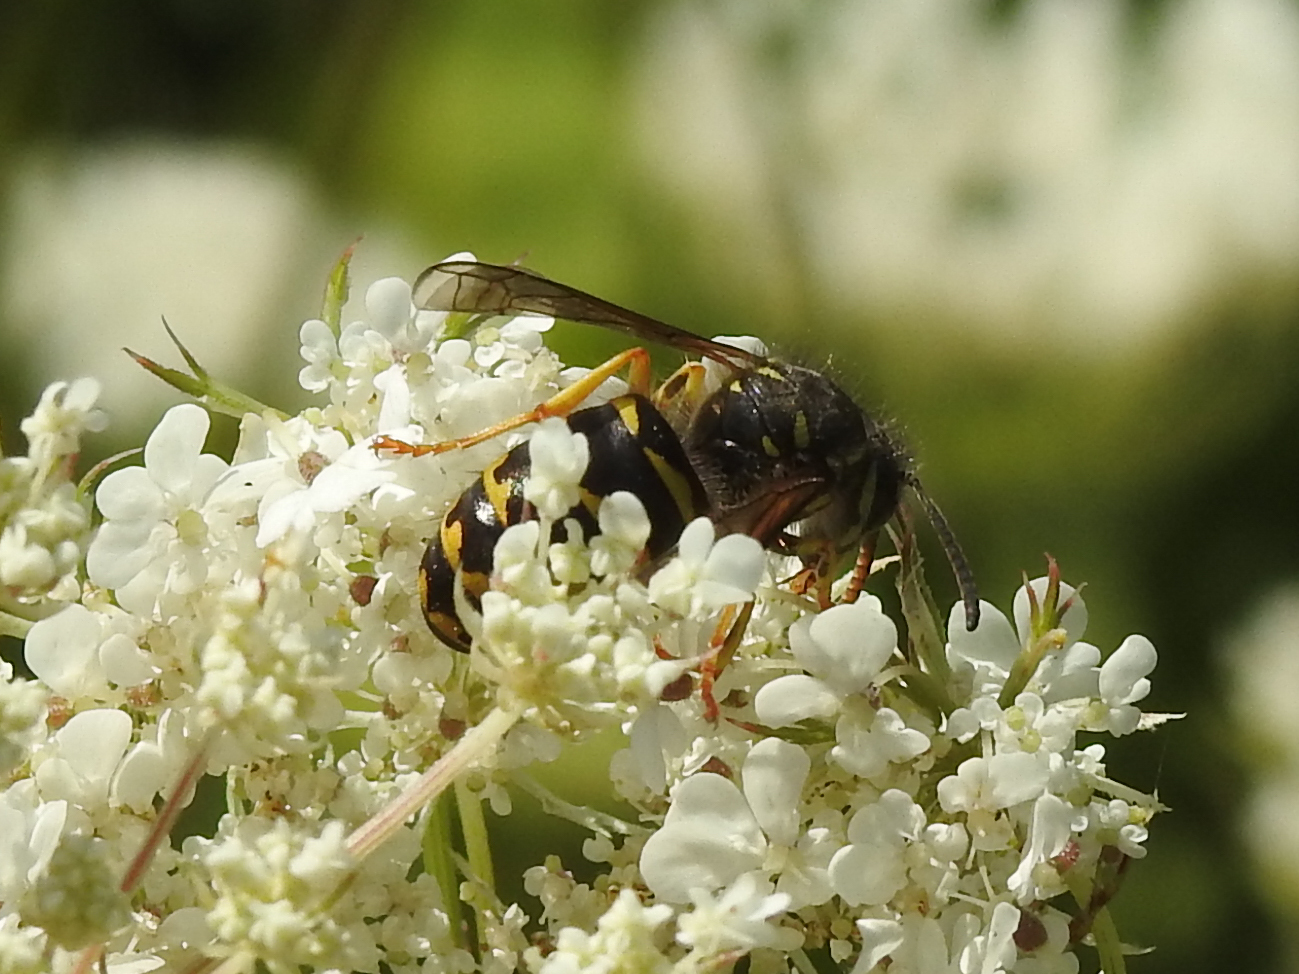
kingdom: Animalia
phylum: Arthropoda
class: Insecta
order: Hymenoptera
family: Vespidae
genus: Dolichovespula
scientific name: Dolichovespula arenaria
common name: Aerial yellowjacket
